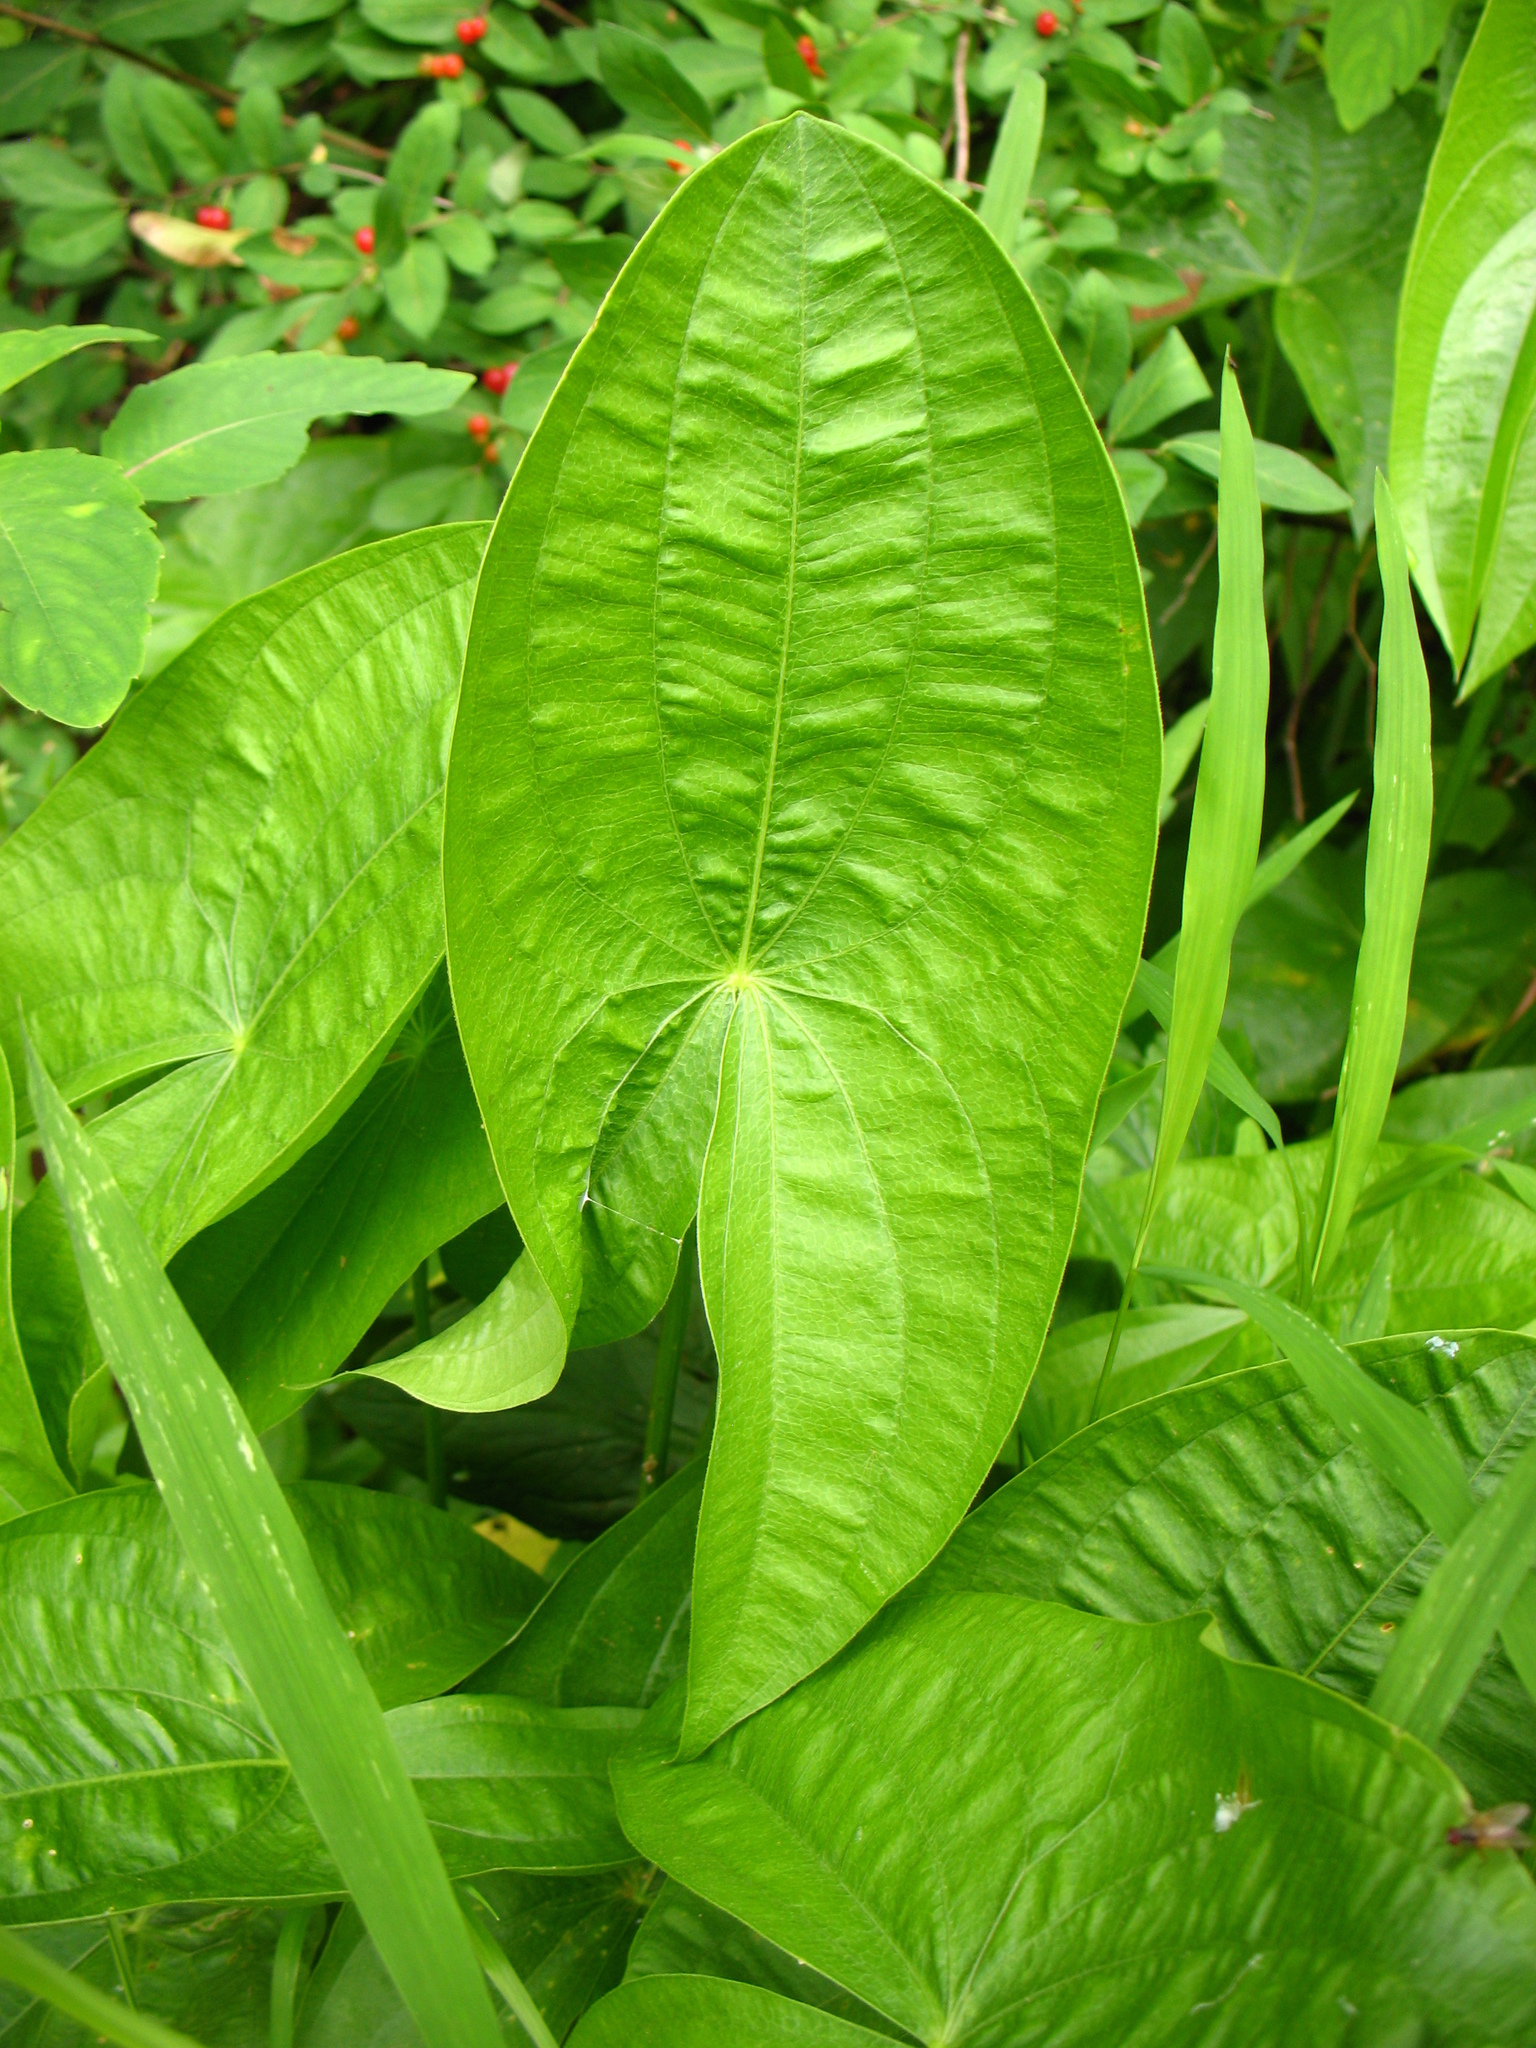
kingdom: Plantae
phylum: Tracheophyta
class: Liliopsida
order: Alismatales
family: Alismataceae
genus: Sagittaria
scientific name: Sagittaria latifolia
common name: Duck-potato
